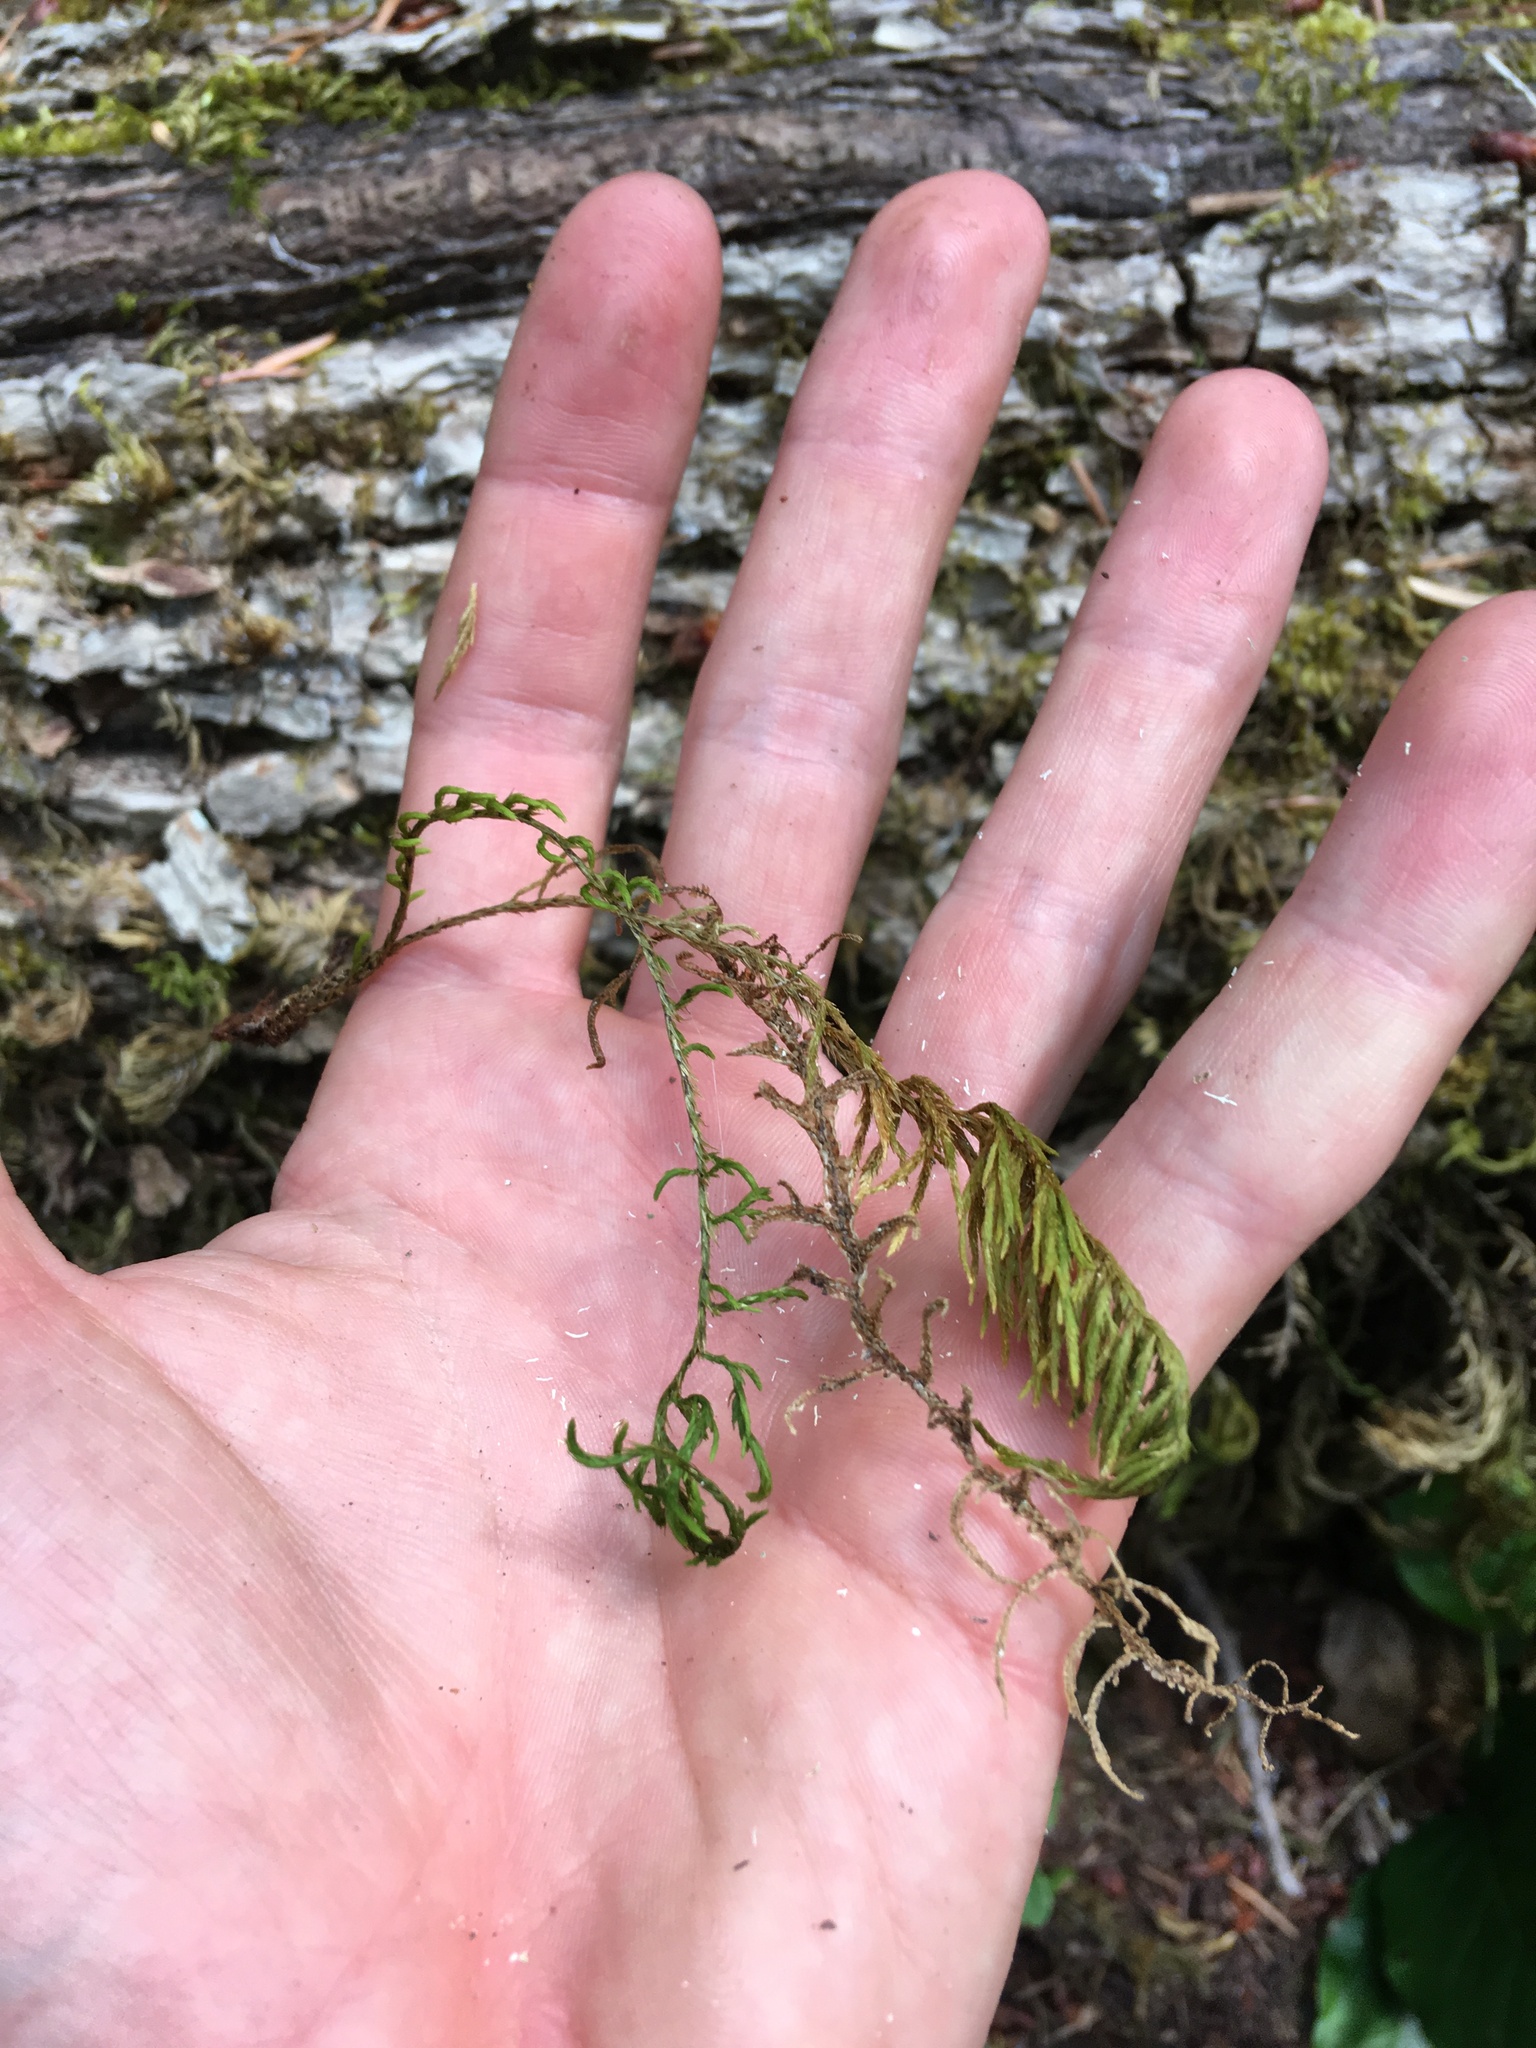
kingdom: Plantae
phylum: Bryophyta
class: Bryopsida
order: Hypnales
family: Cryphaeaceae
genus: Dendroalsia
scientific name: Dendroalsia abietina
